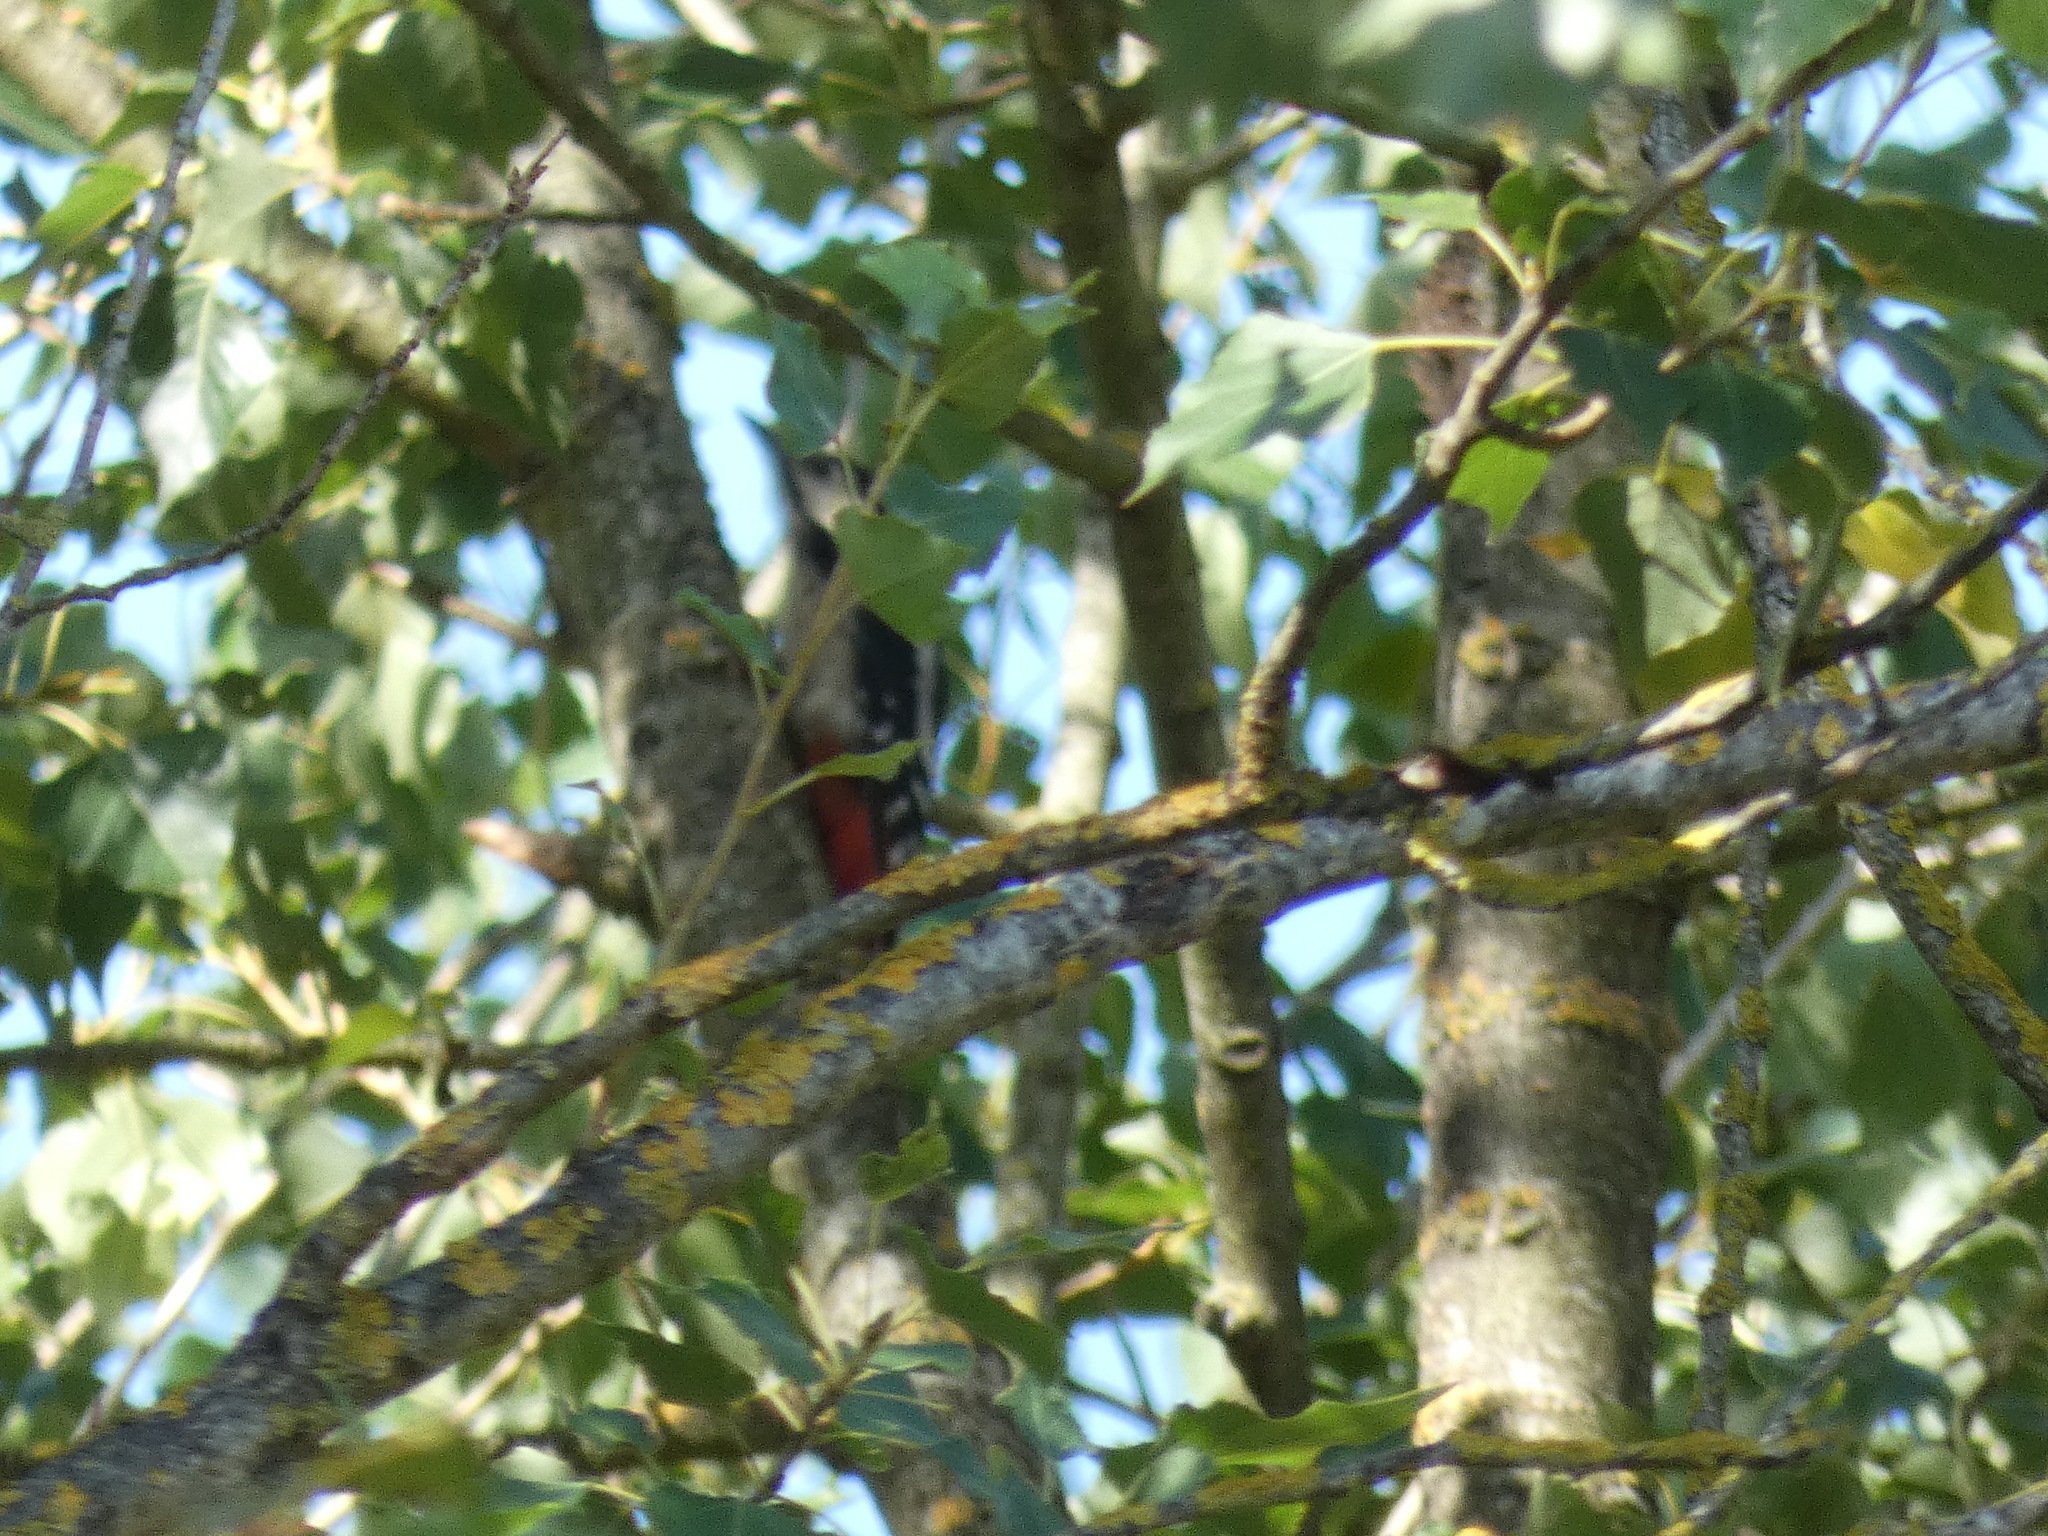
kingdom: Animalia
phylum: Chordata
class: Aves
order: Piciformes
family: Picidae
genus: Dendrocopos
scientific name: Dendrocopos major
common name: Great spotted woodpecker
